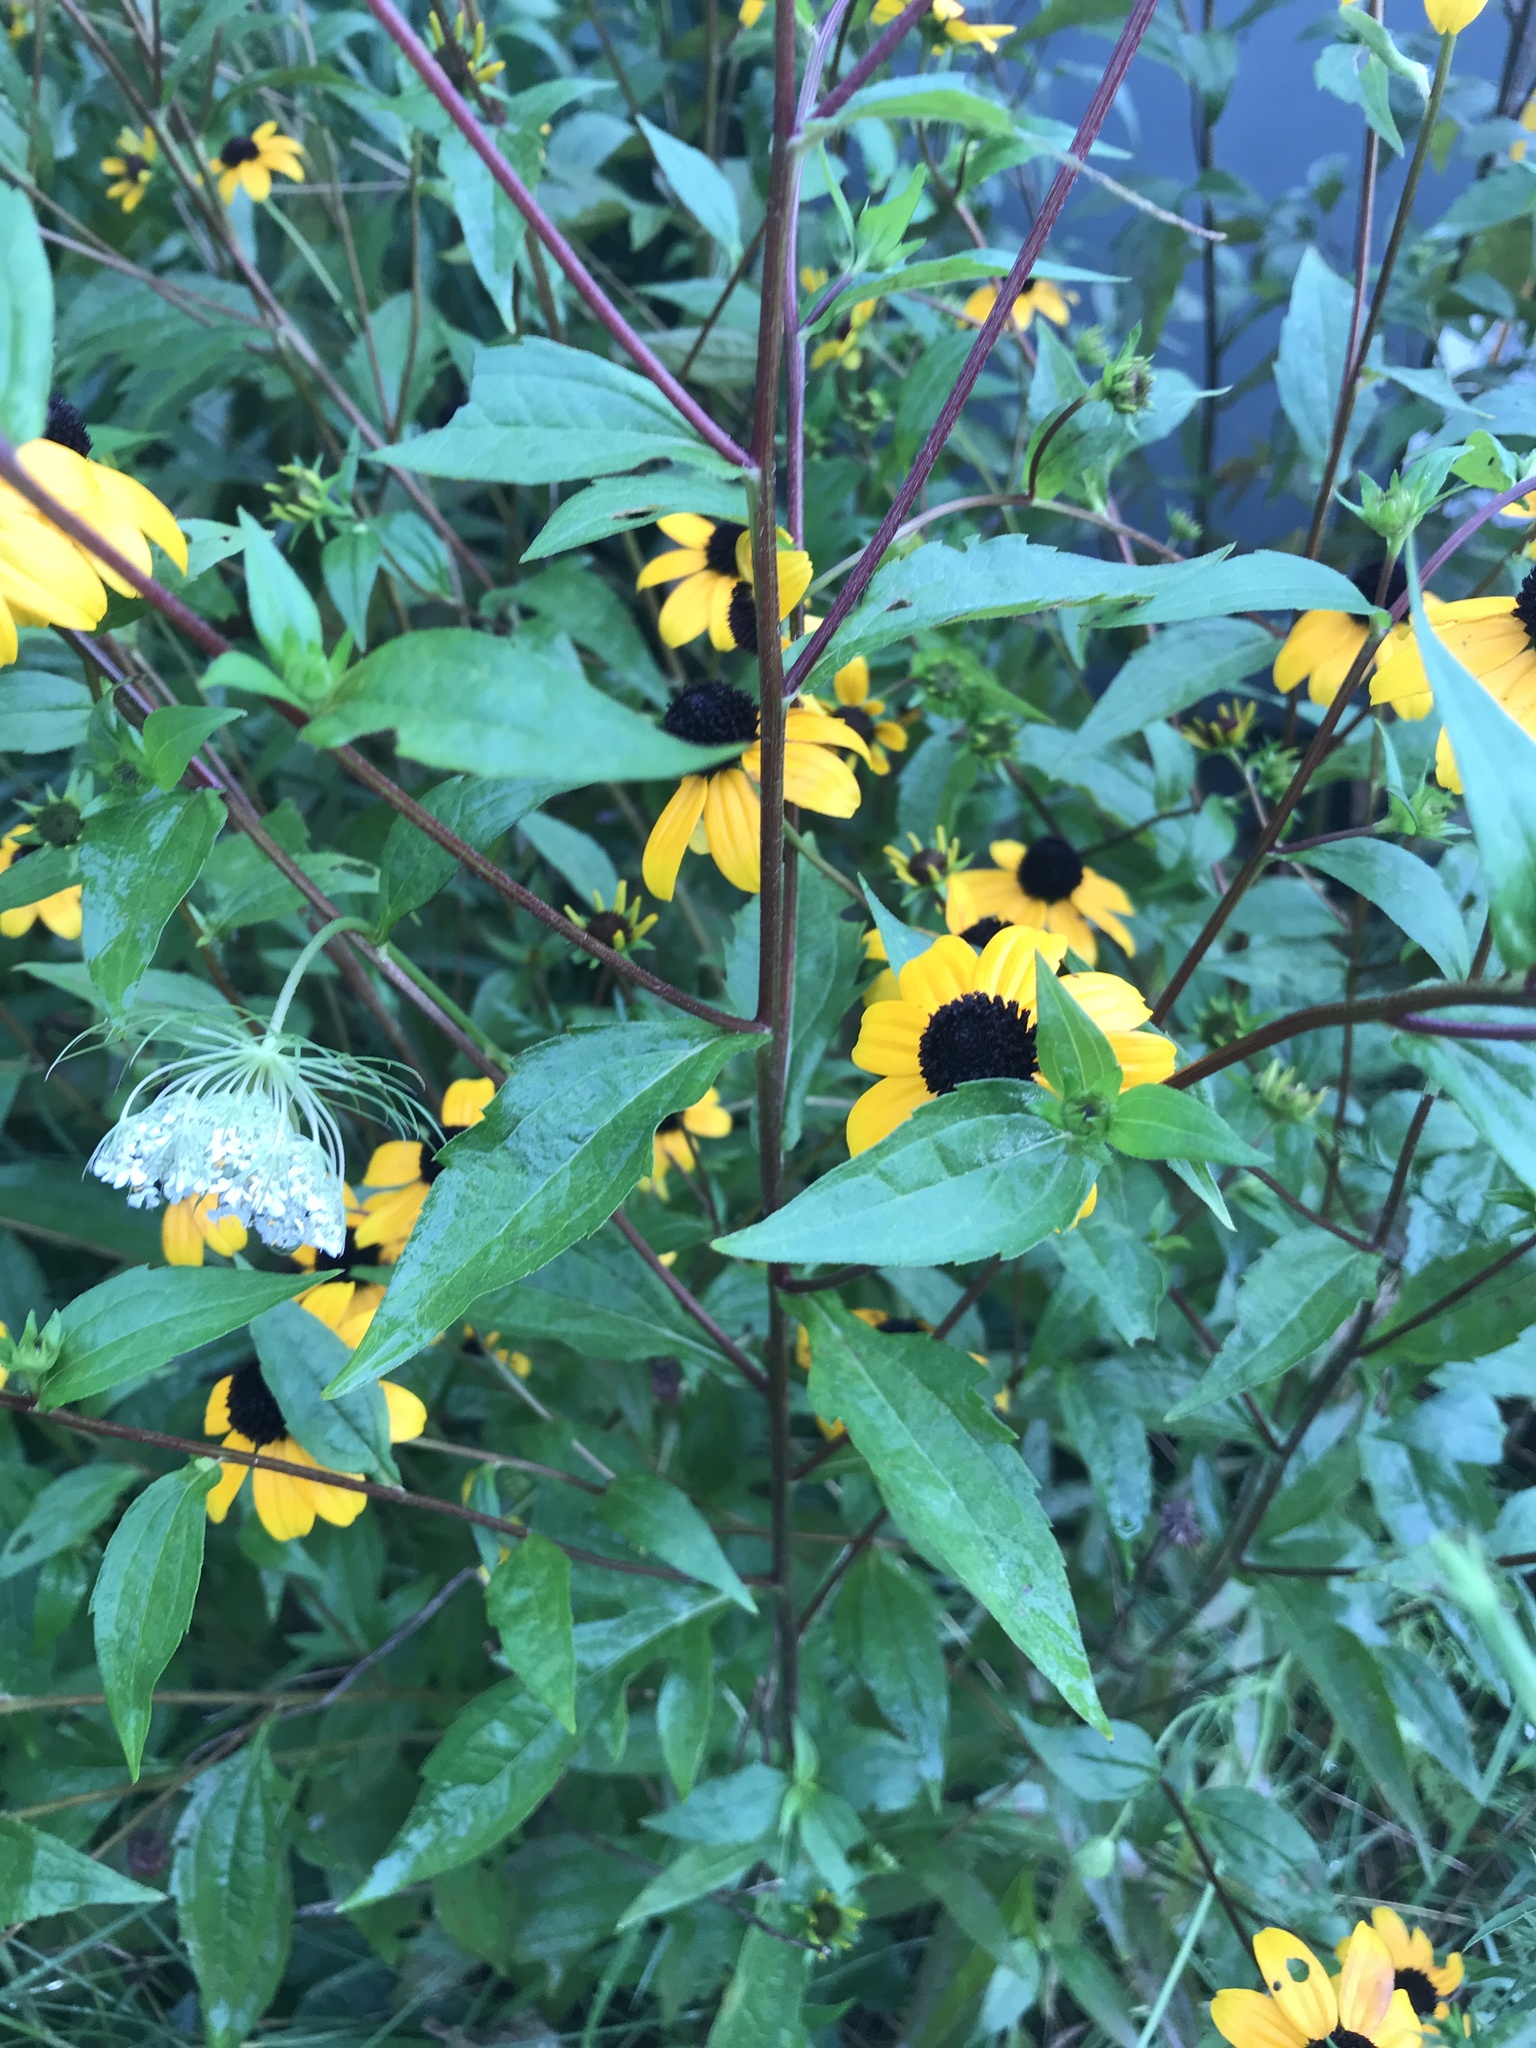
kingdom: Plantae
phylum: Tracheophyta
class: Magnoliopsida
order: Asterales
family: Asteraceae
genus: Rudbeckia
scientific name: Rudbeckia triloba
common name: Thin-leaved coneflower
